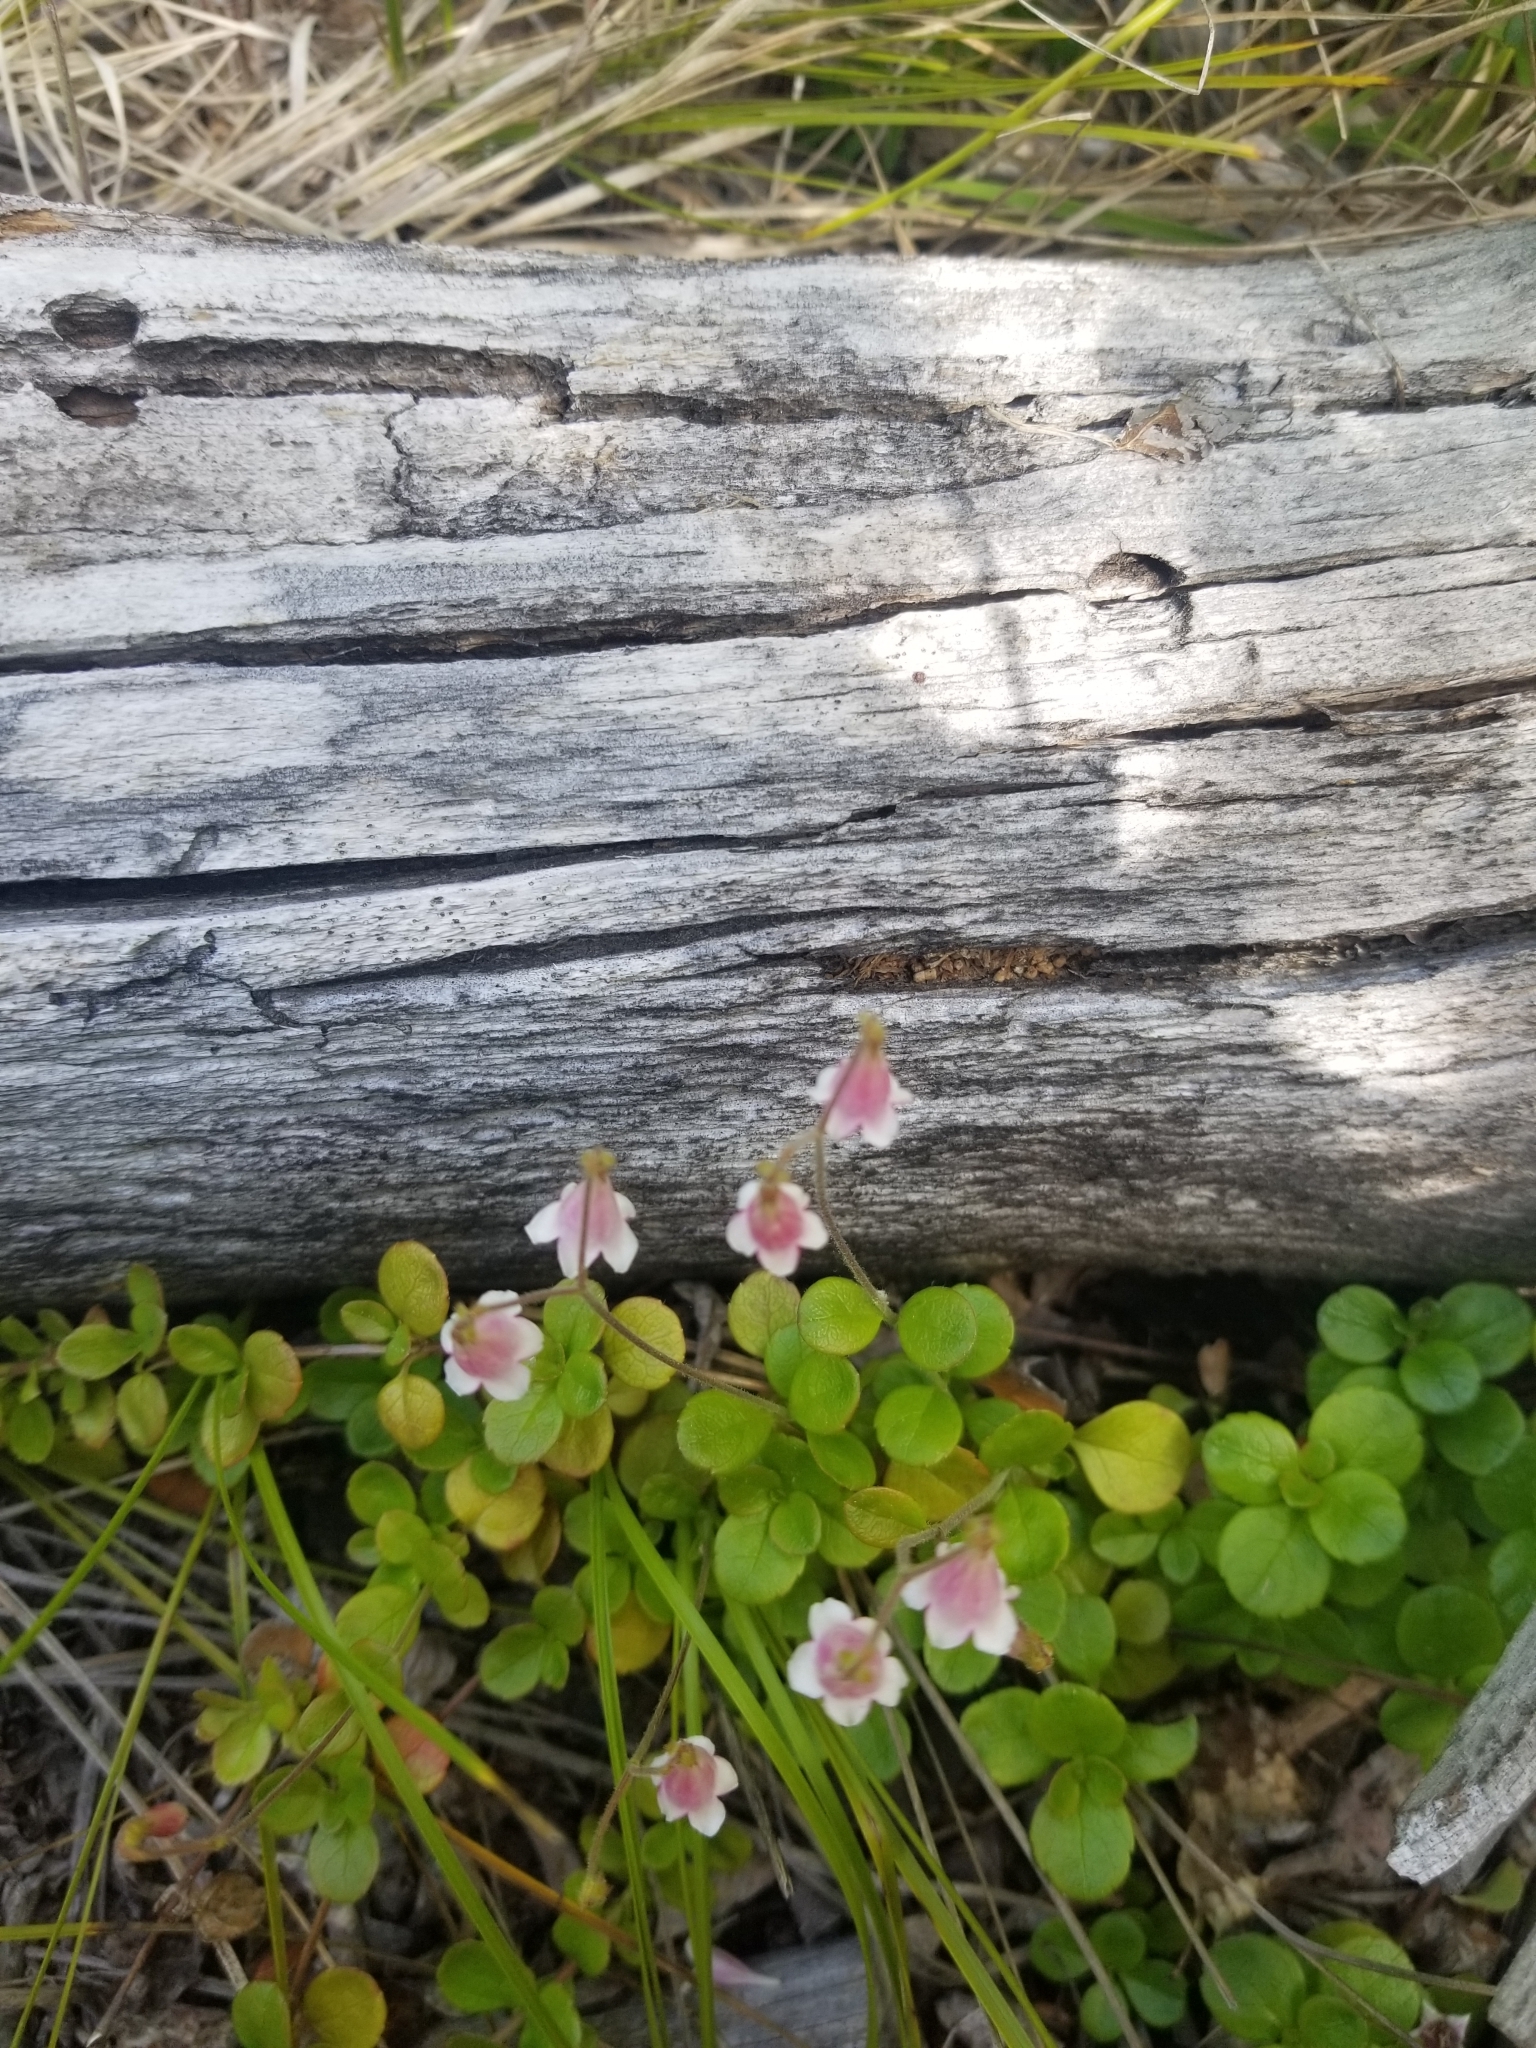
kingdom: Plantae
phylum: Tracheophyta
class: Magnoliopsida
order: Dipsacales
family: Caprifoliaceae
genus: Linnaea
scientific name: Linnaea borealis
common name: Twinflower
